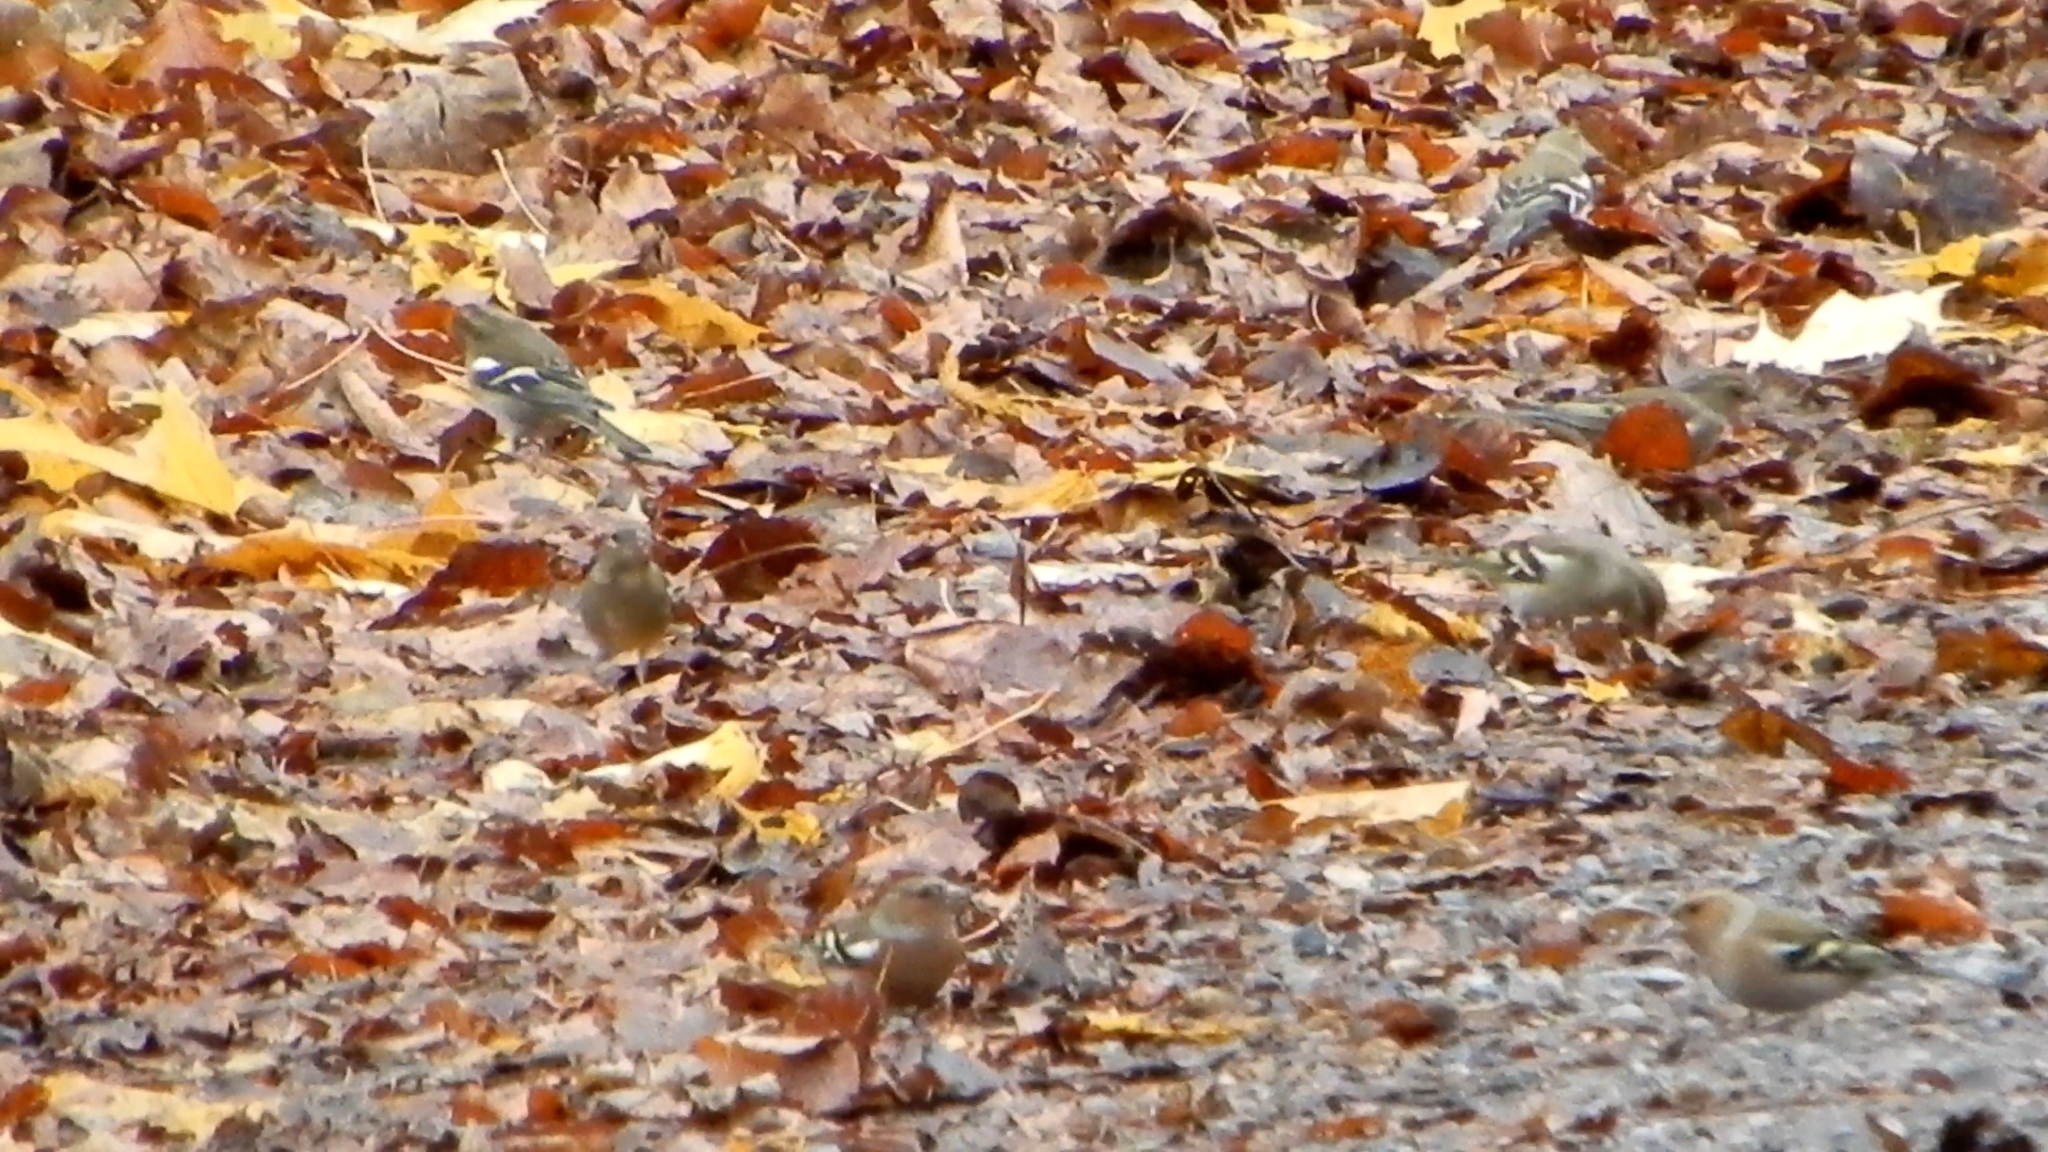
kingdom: Animalia
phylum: Chordata
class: Aves
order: Passeriformes
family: Fringillidae
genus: Fringilla
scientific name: Fringilla coelebs
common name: Common chaffinch
